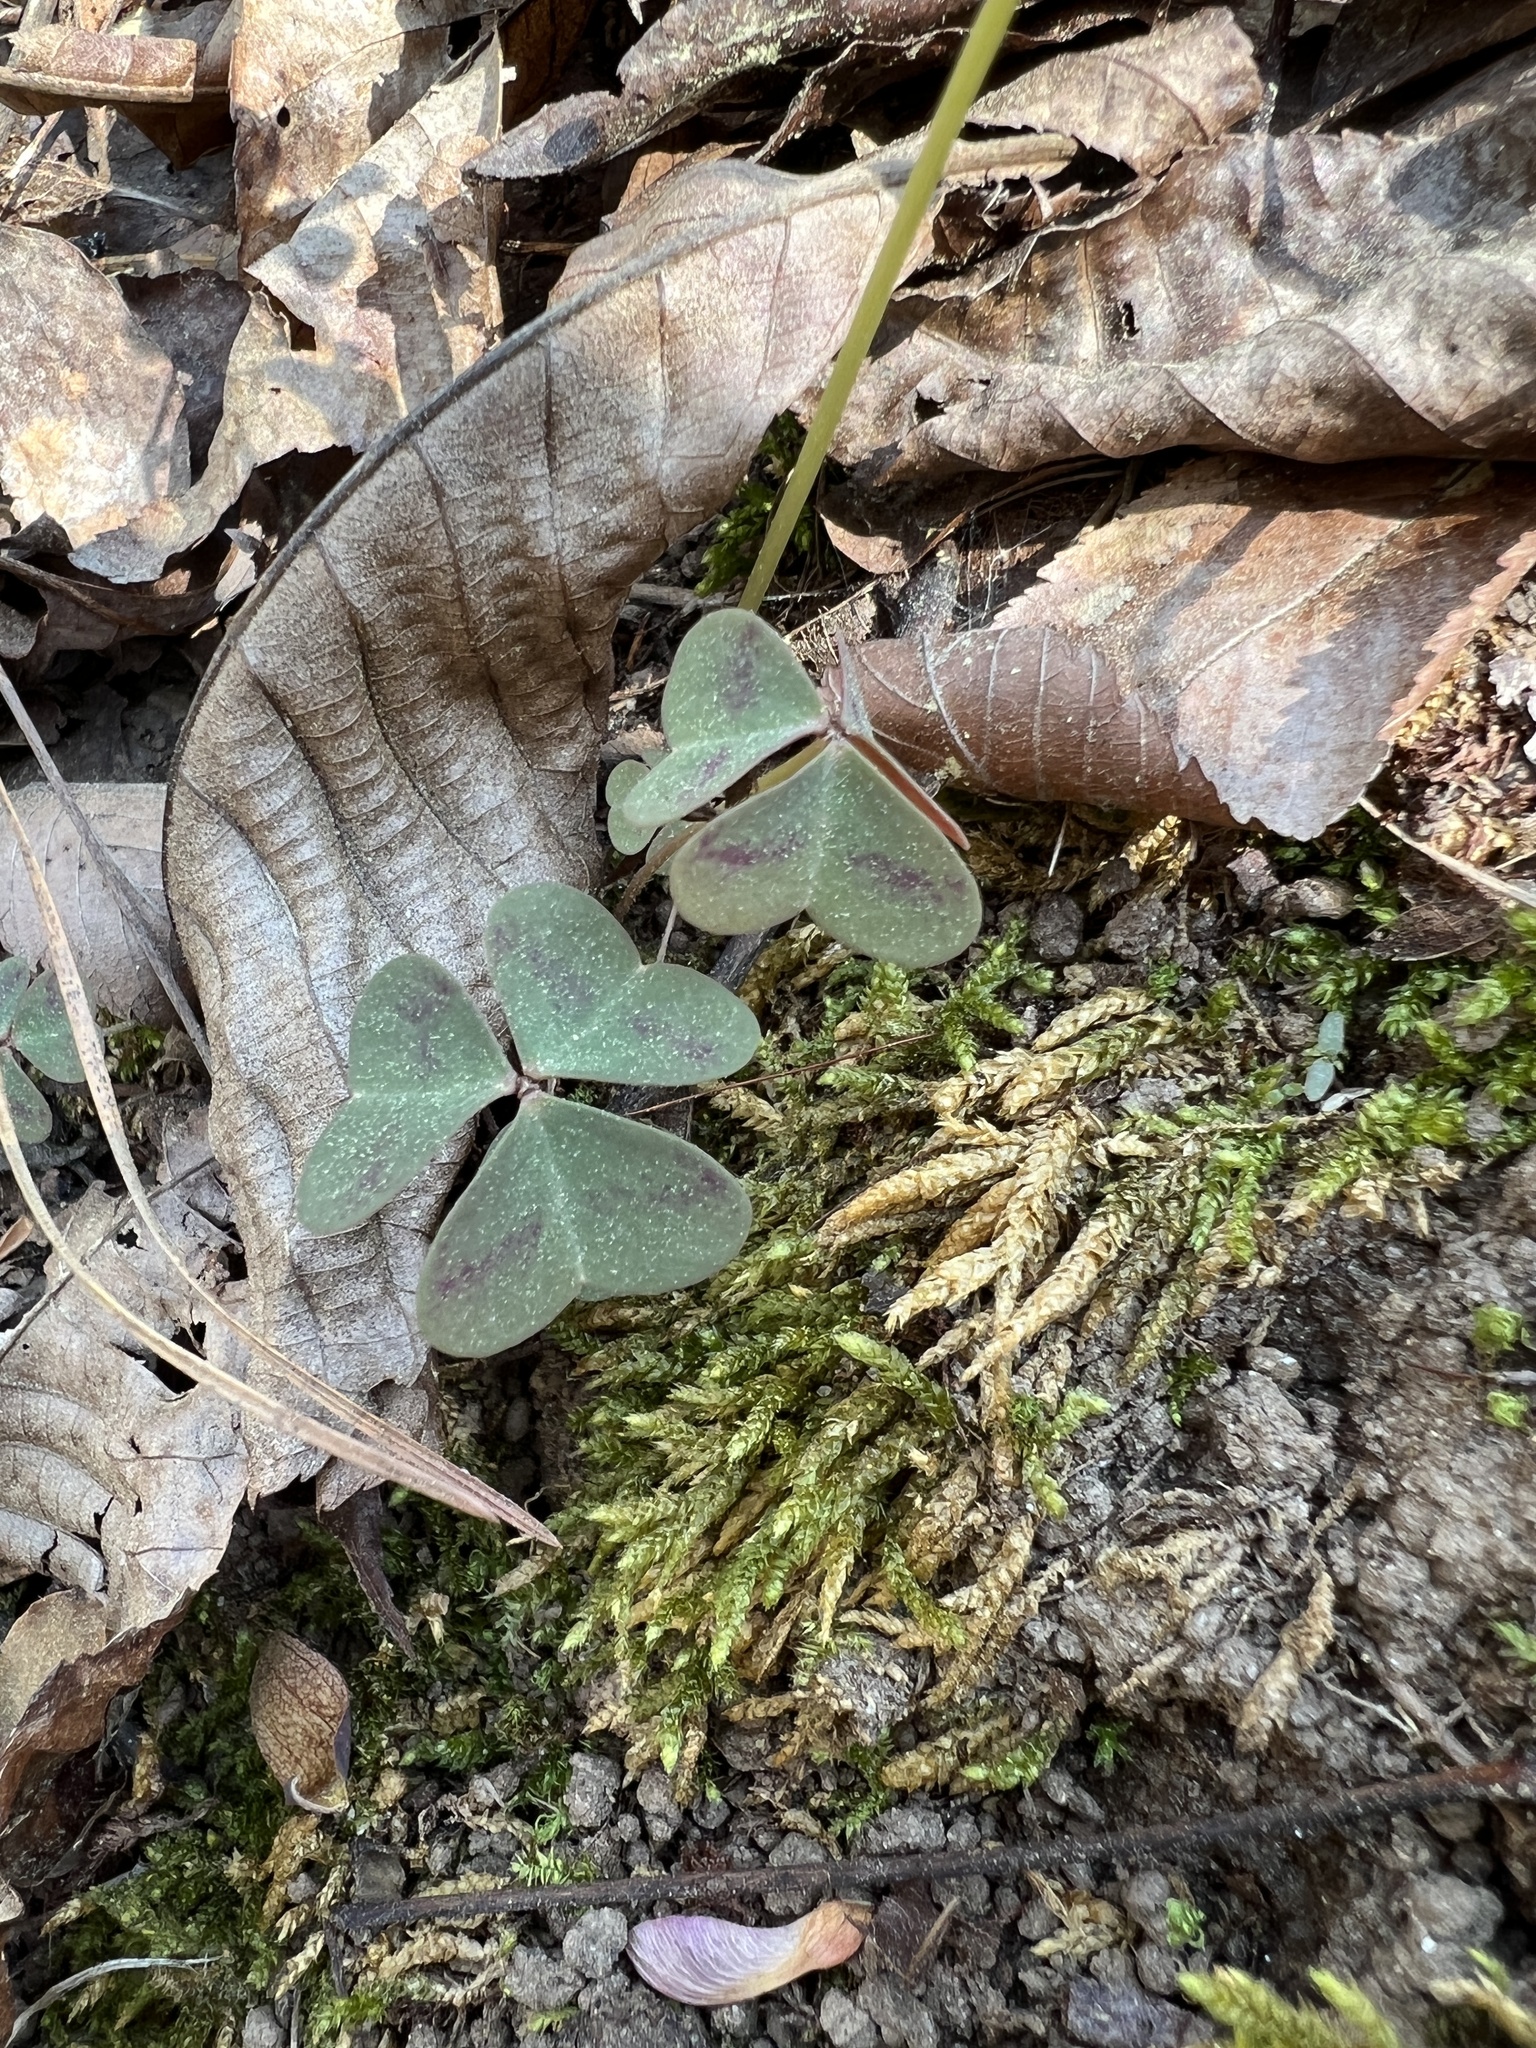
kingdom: Plantae
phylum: Tracheophyta
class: Magnoliopsida
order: Oxalidales
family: Oxalidaceae
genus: Oxalis
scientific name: Oxalis violacea
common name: Violet wood-sorrel
